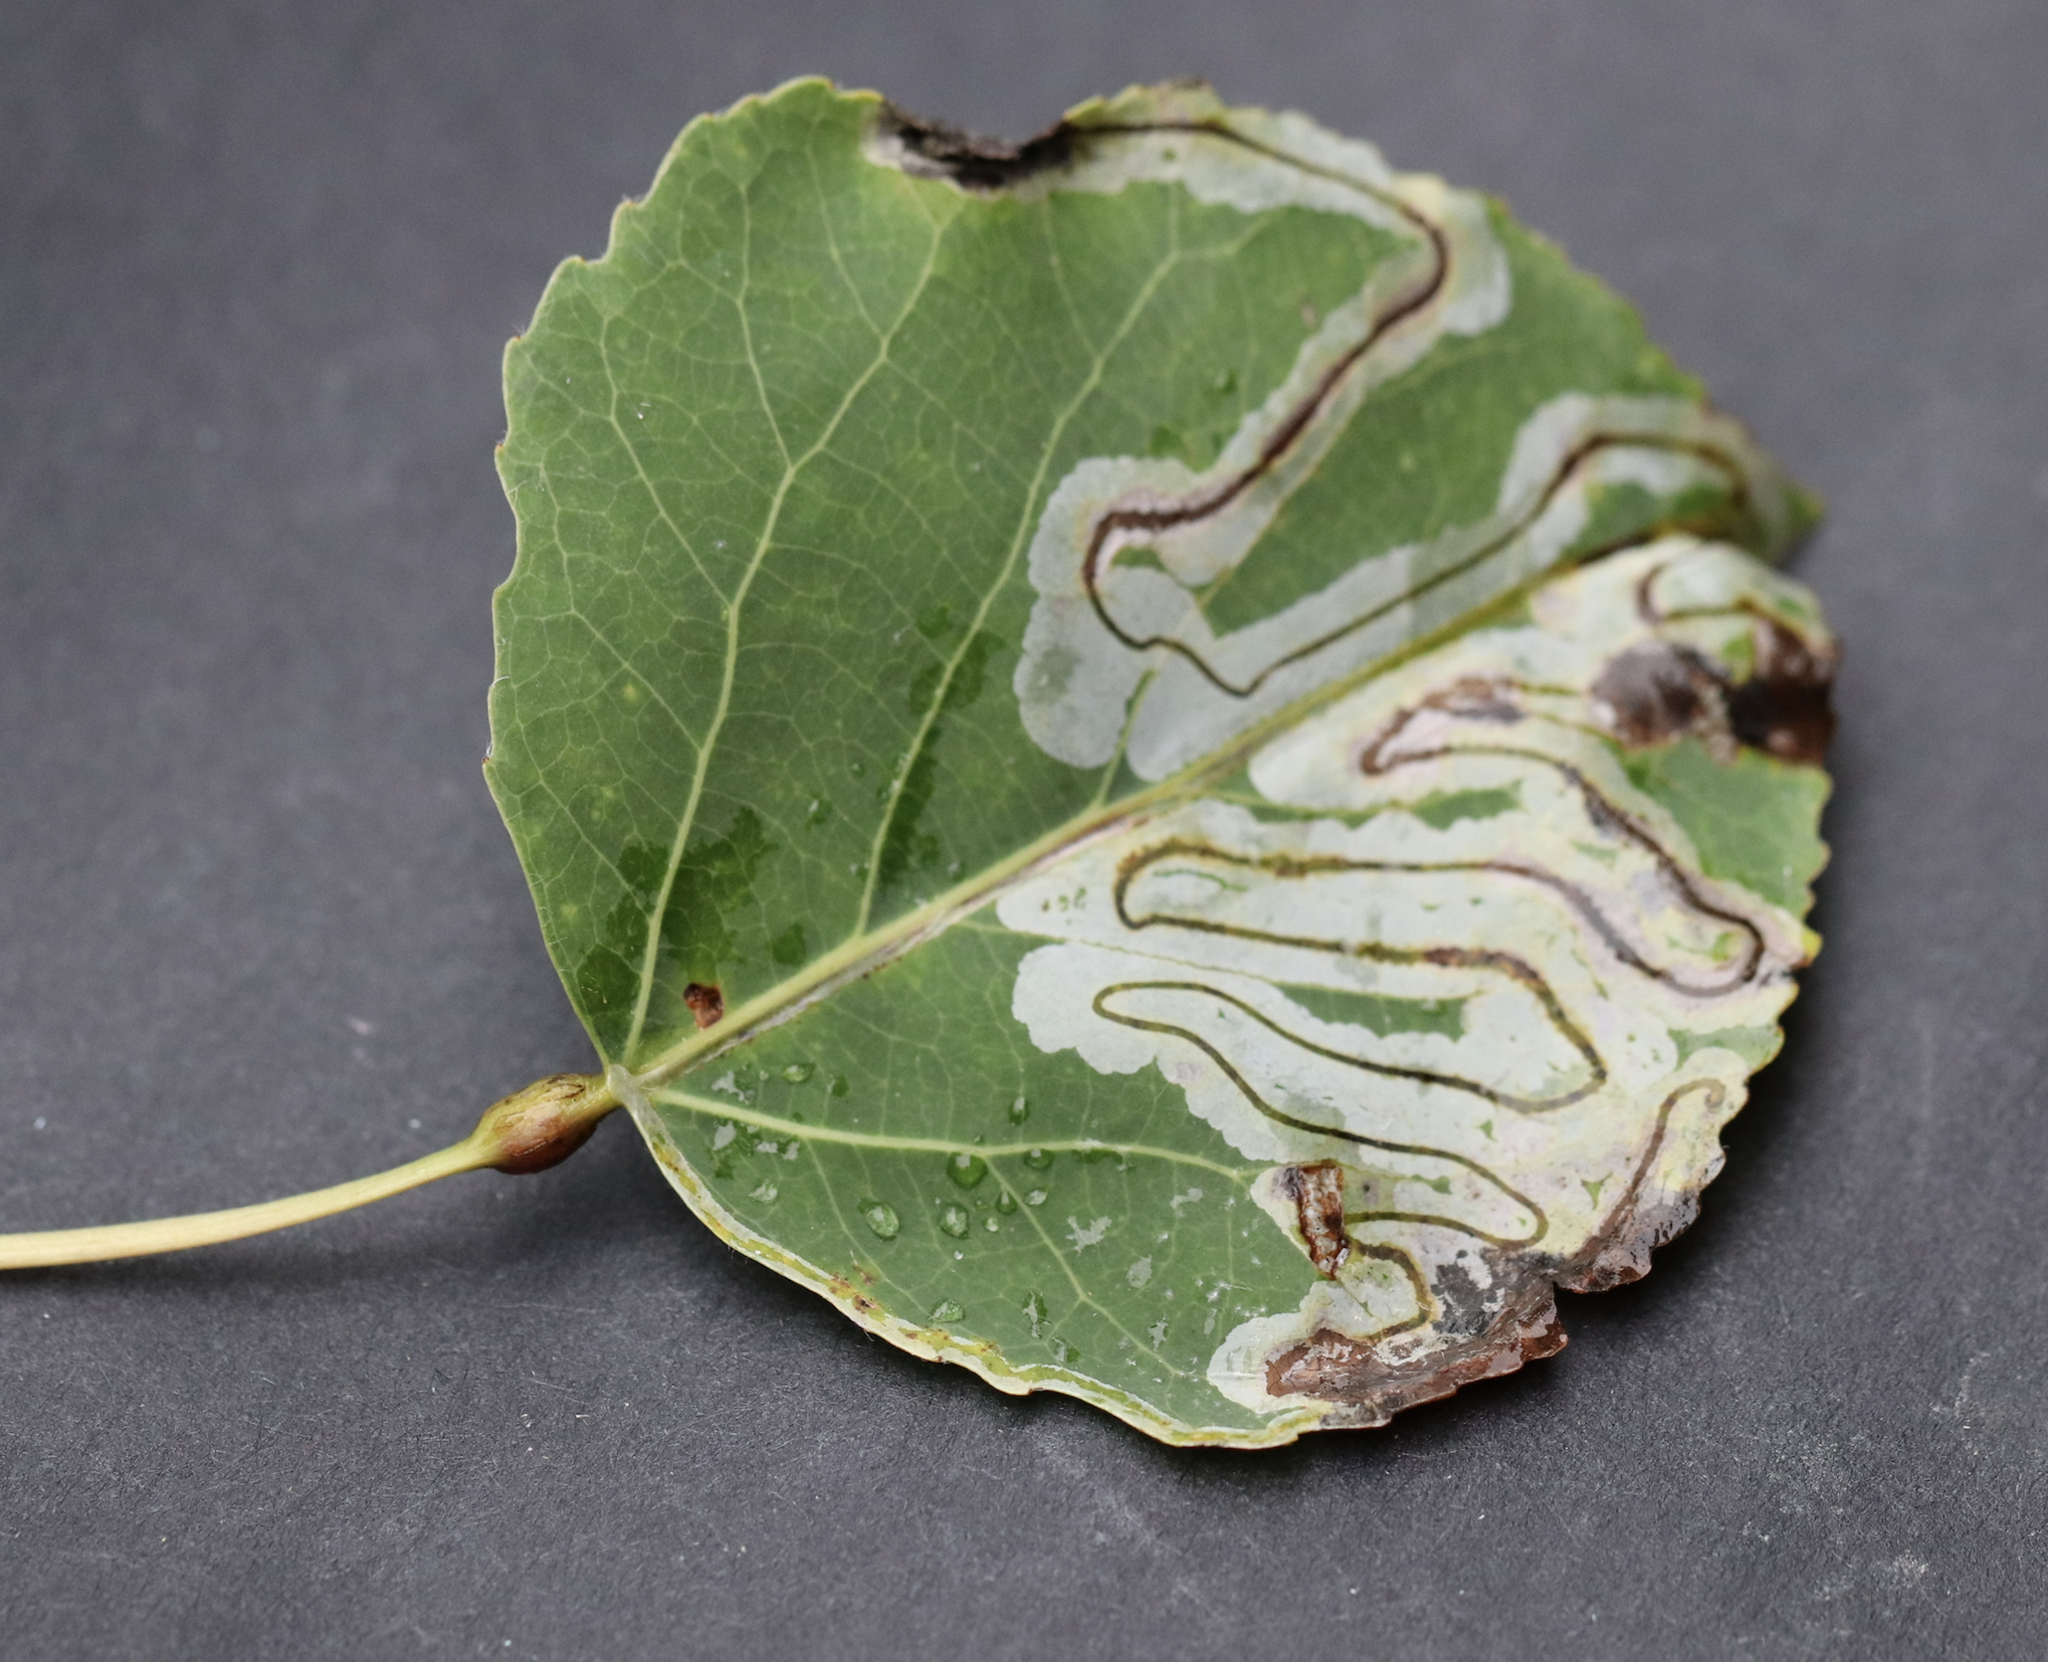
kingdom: Animalia
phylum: Arthropoda
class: Insecta
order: Lepidoptera
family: Nepticulidae
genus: Ectoedemia
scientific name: Ectoedemia populella
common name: Aspen petiole gall moth
